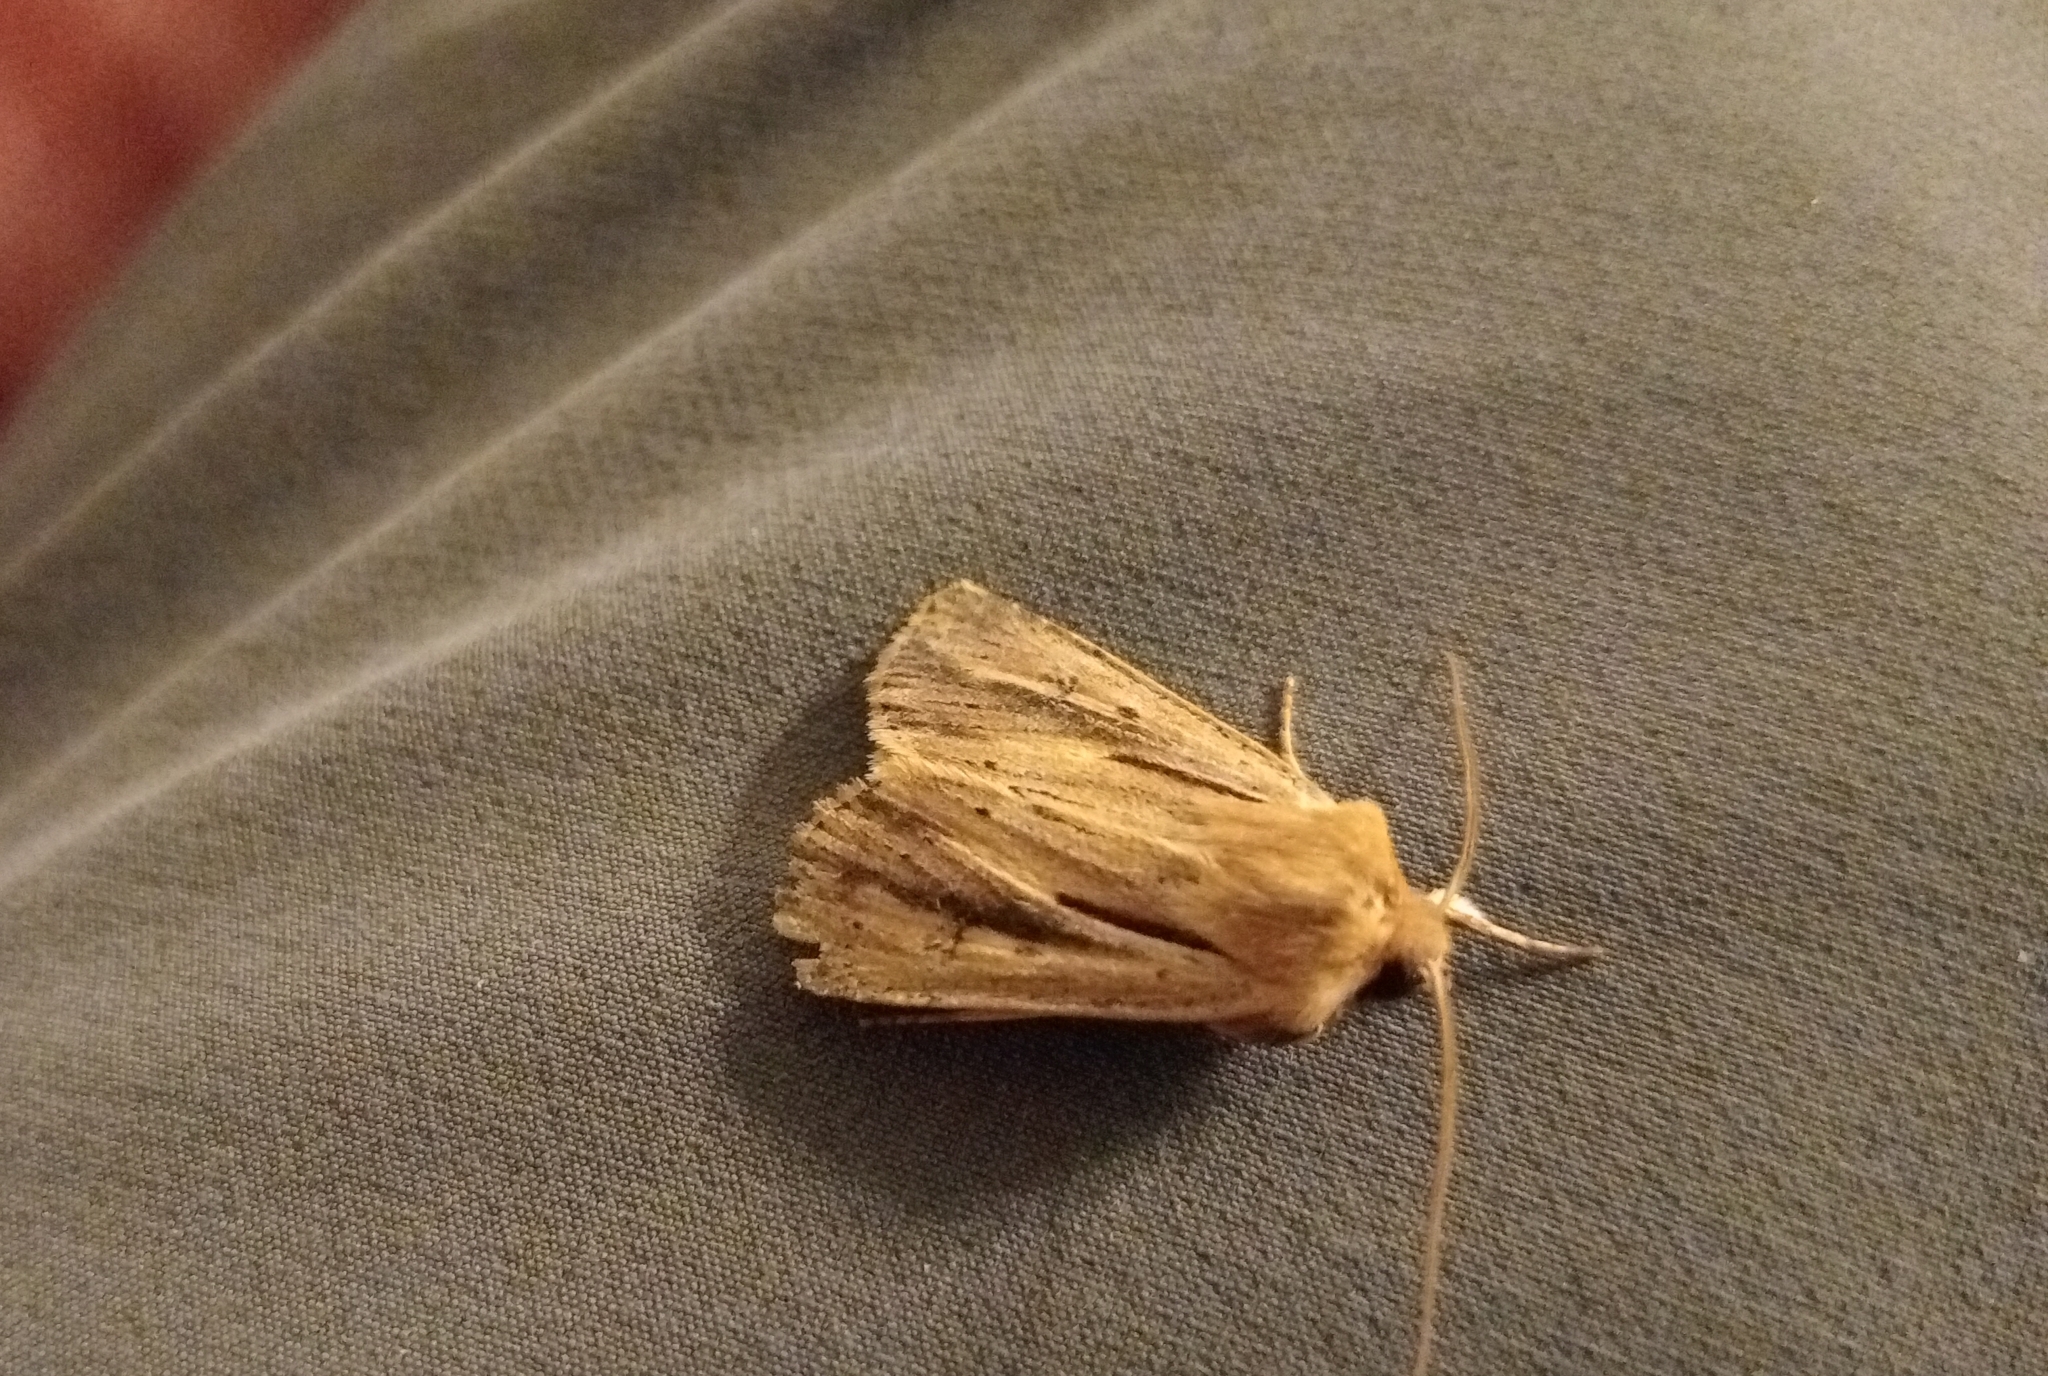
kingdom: Animalia
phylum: Arthropoda
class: Insecta
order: Lepidoptera
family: Noctuidae
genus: Ichneutica
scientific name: Ichneutica propria
